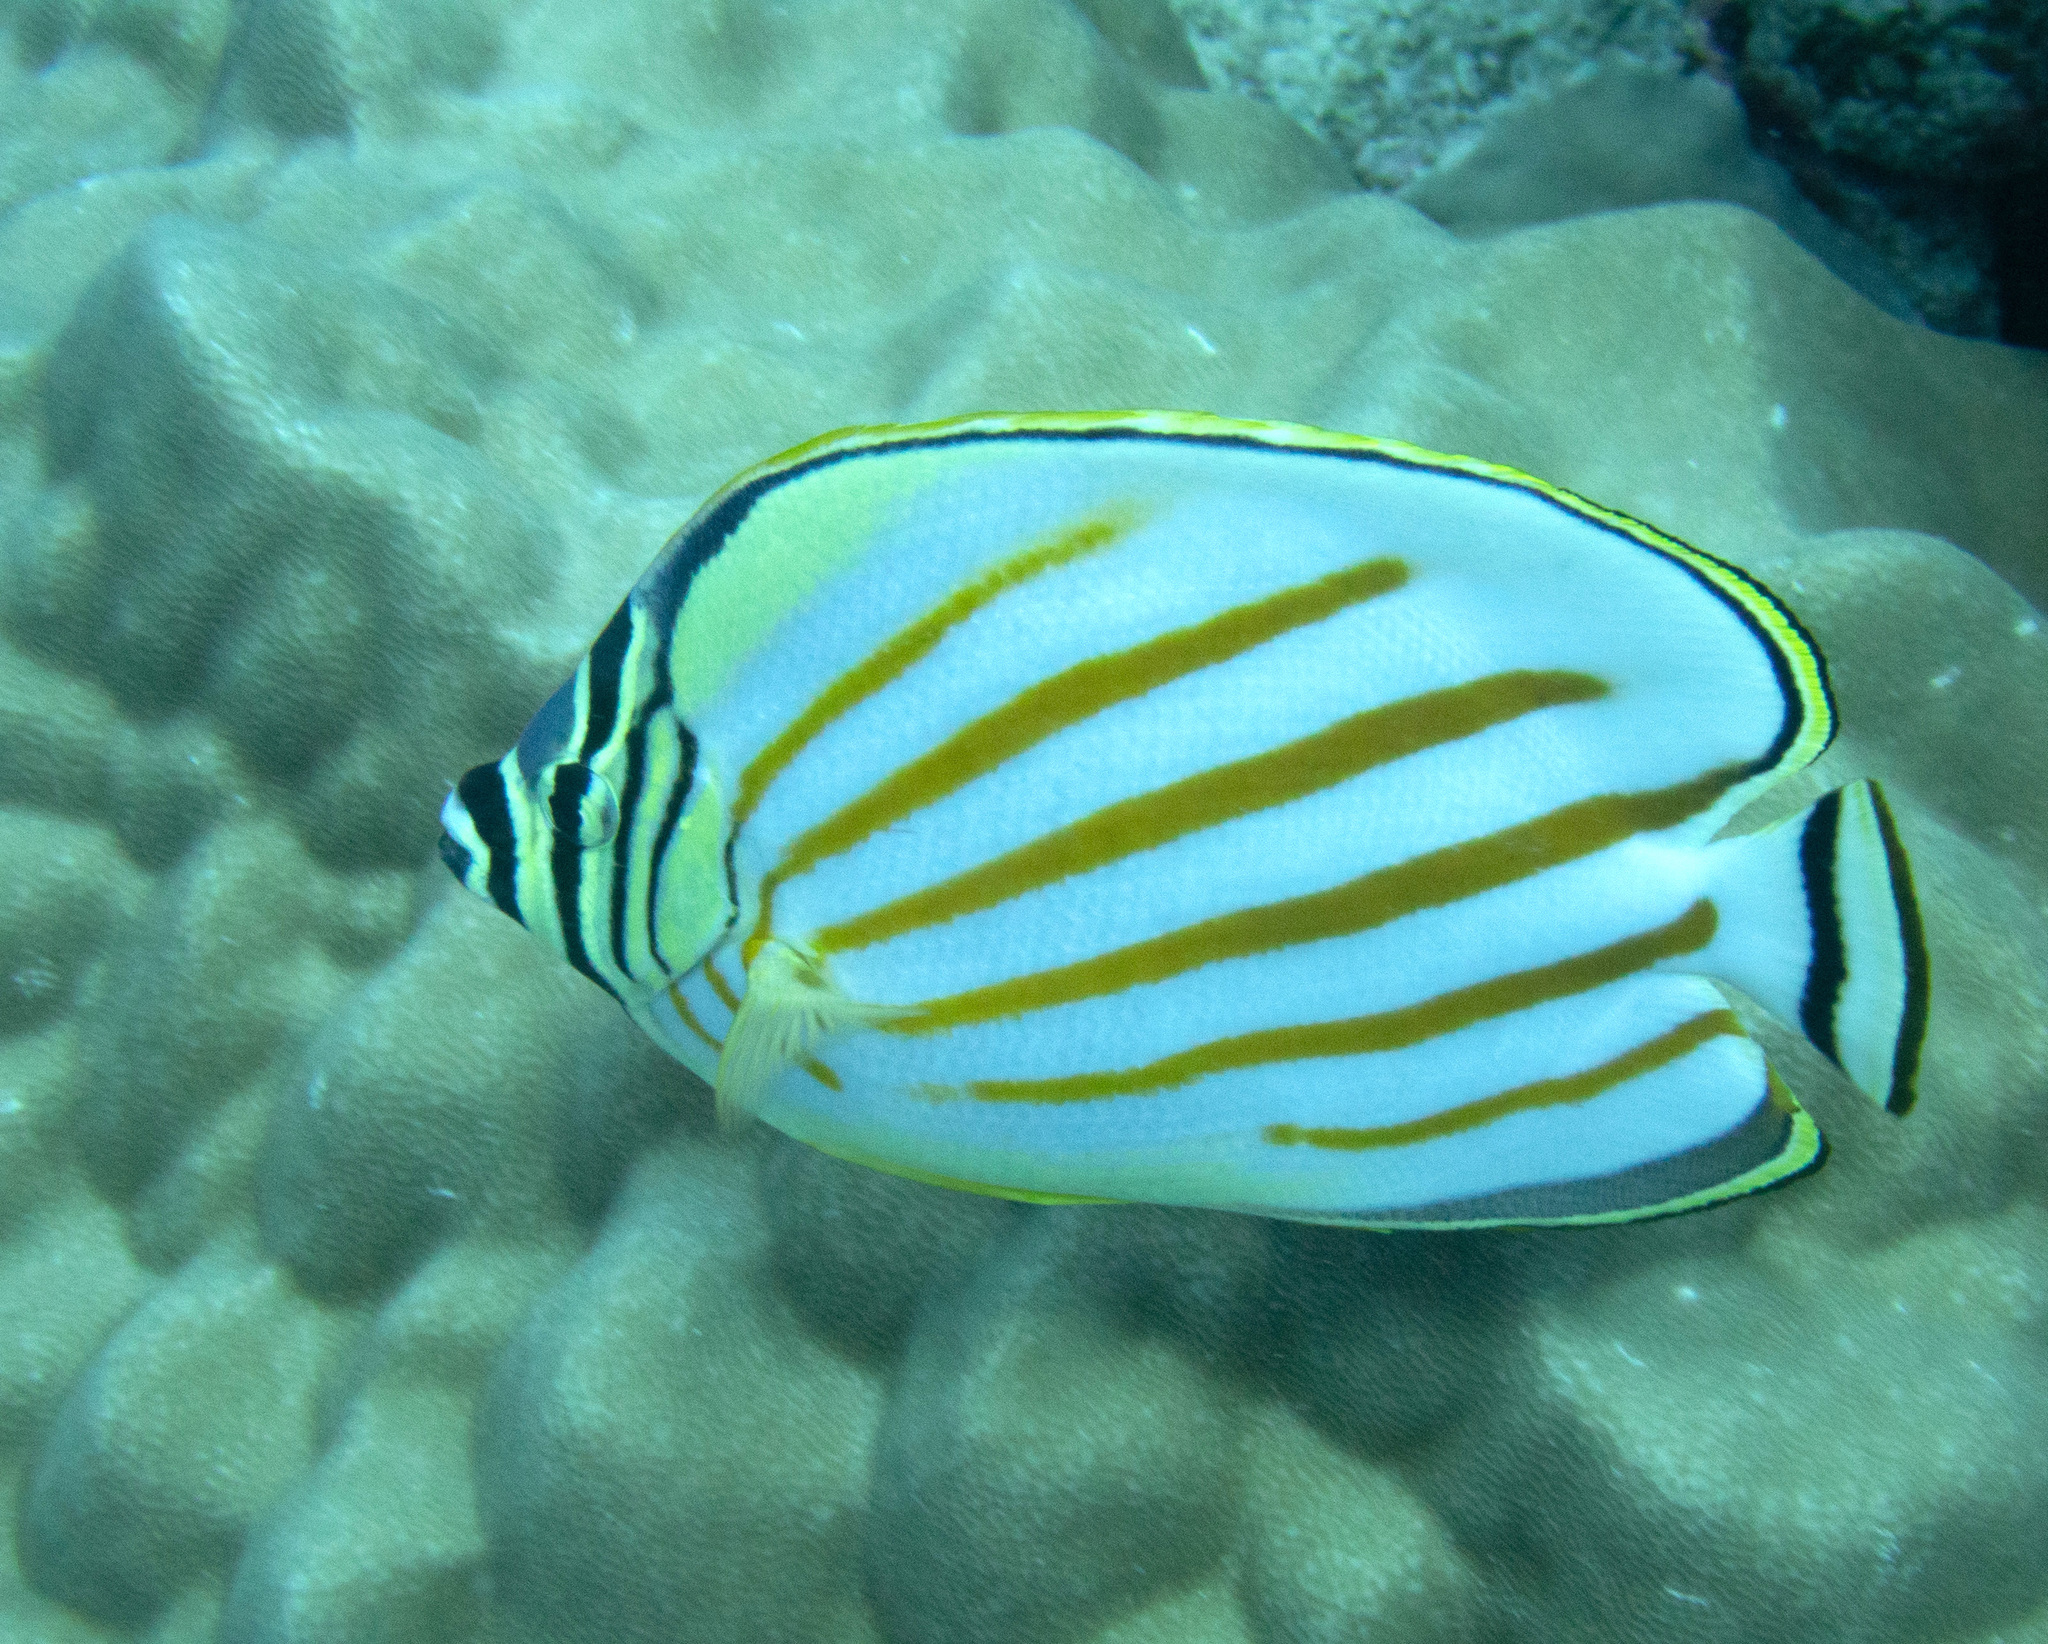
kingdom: Animalia
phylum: Chordata
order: Perciformes
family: Chaetodontidae
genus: Chaetodon
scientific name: Chaetodon ornatissimus
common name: Ornate butterflyfish
